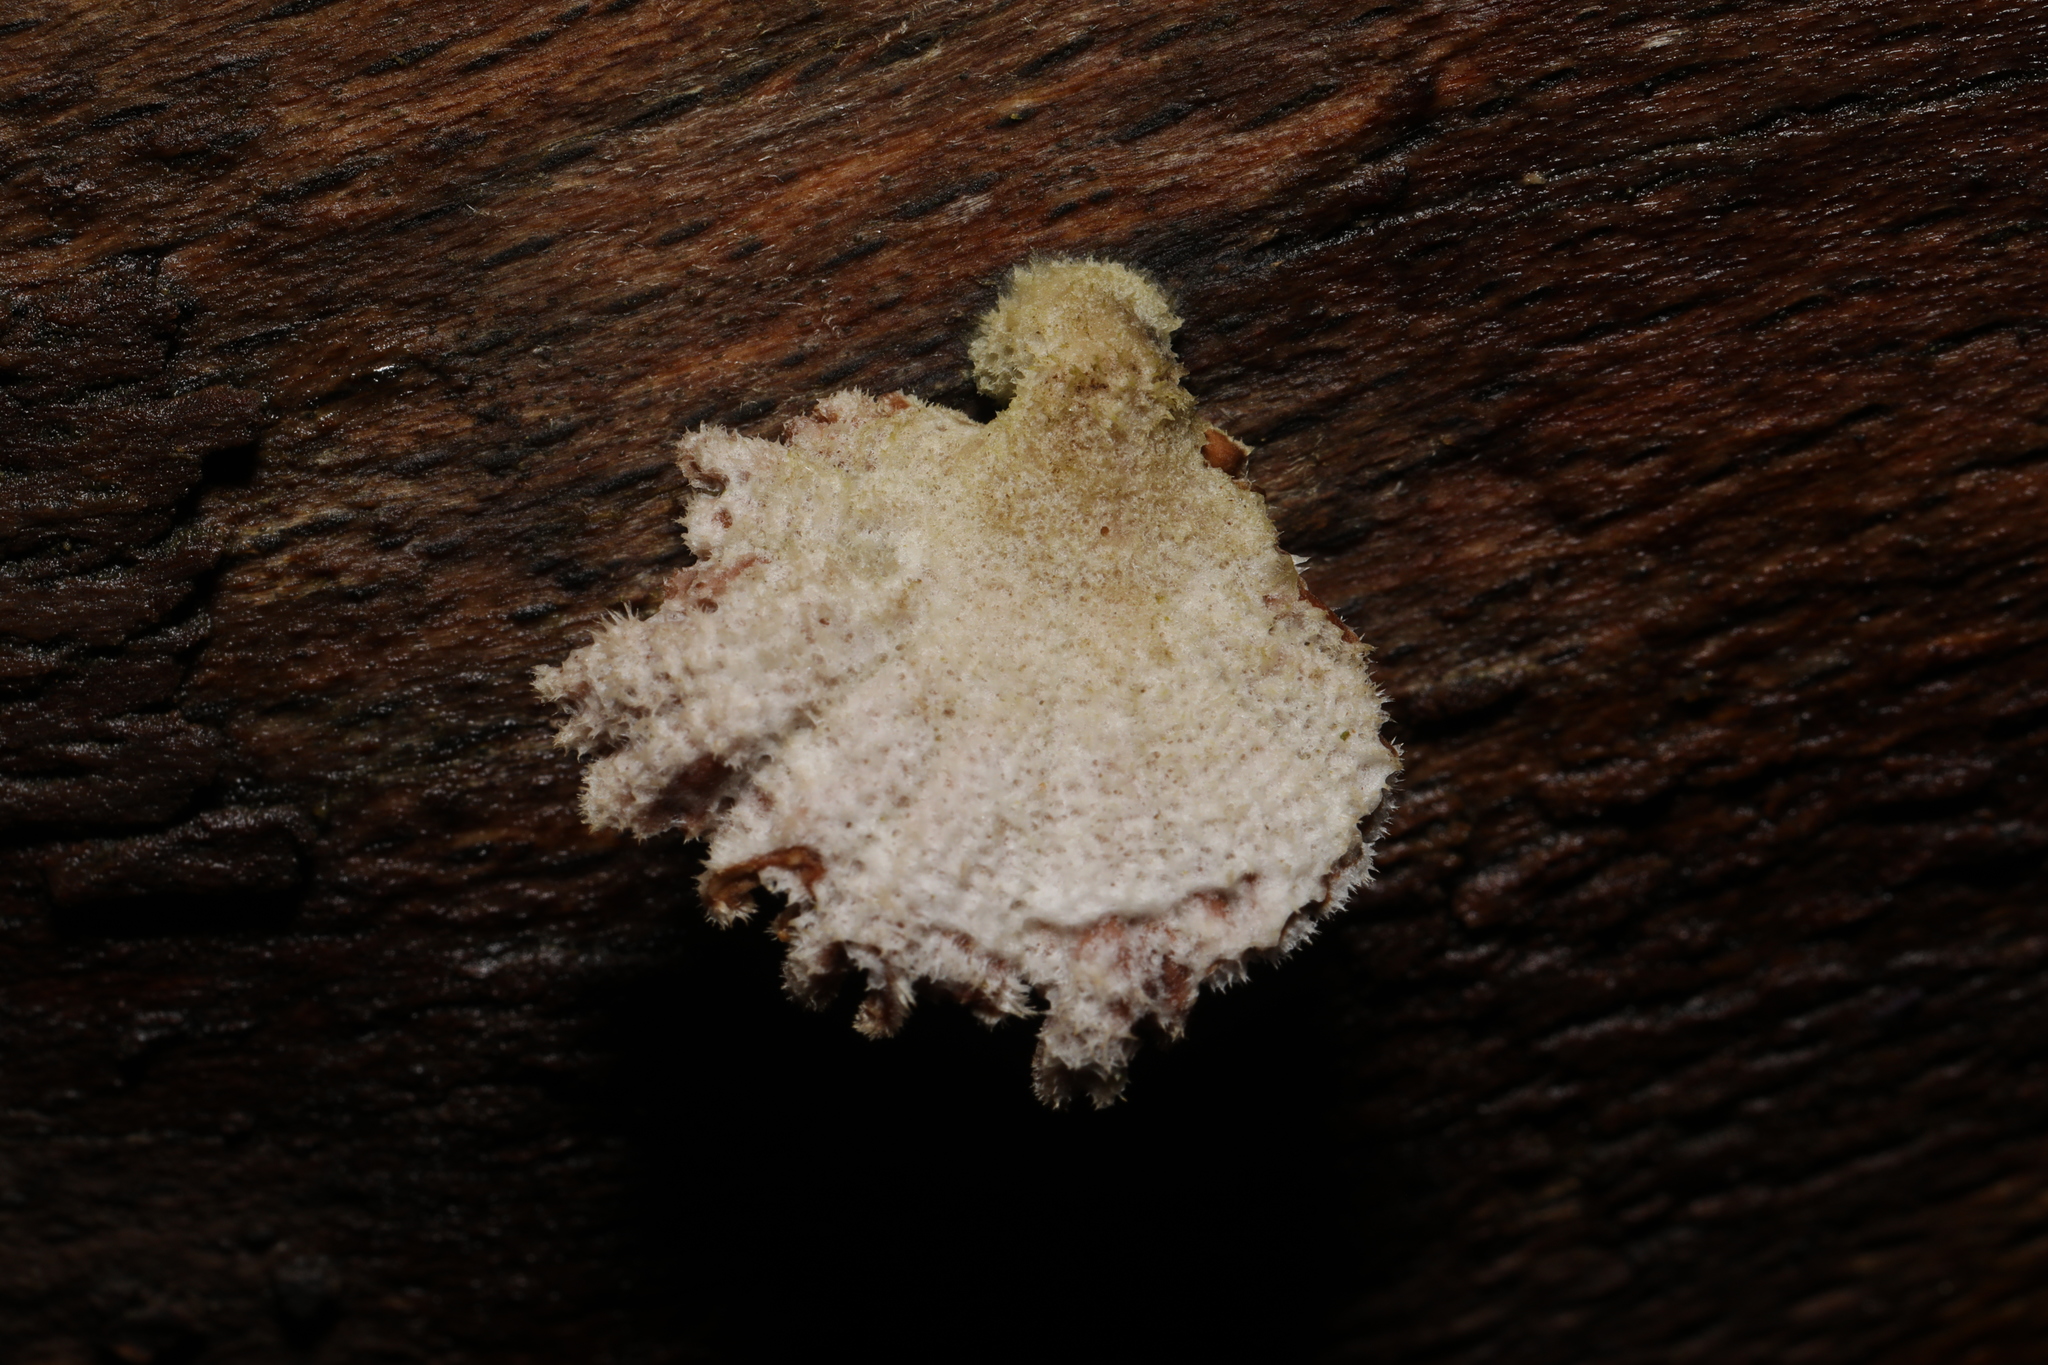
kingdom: Fungi
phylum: Basidiomycota
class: Agaricomycetes
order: Agaricales
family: Schizophyllaceae
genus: Schizophyllum
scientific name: Schizophyllum commune
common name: Common porecrust
